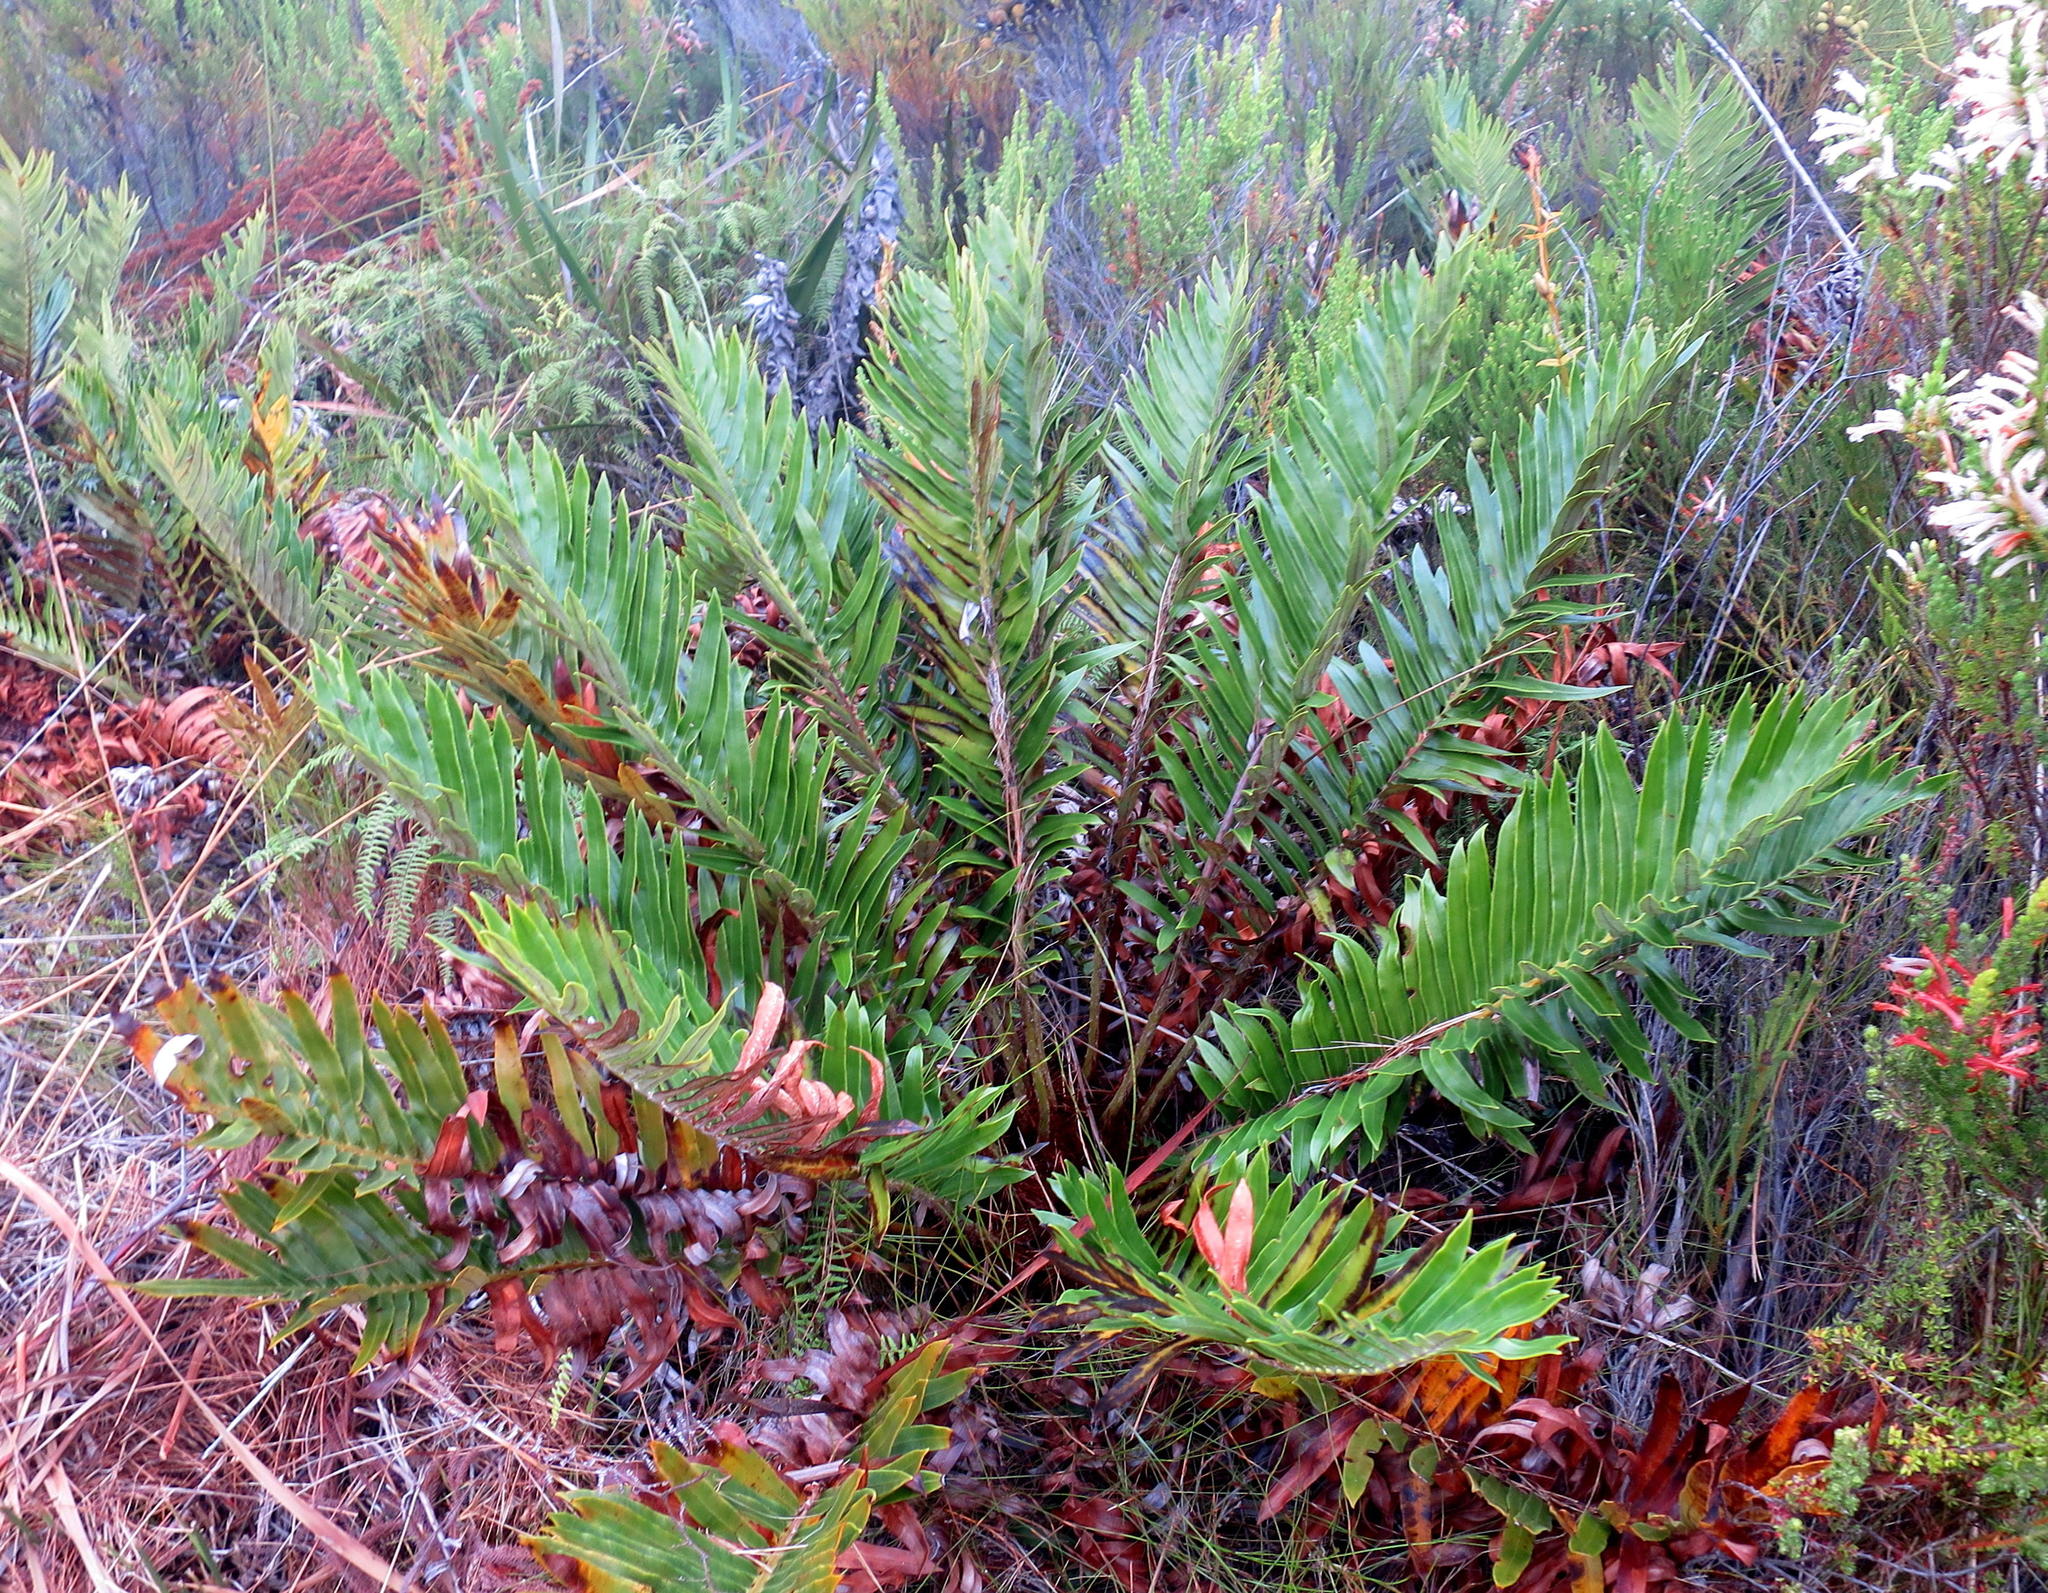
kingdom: Plantae
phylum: Tracheophyta
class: Polypodiopsida
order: Polypodiales
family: Blechnaceae
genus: Lomariocycas
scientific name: Lomariocycas tabularis
